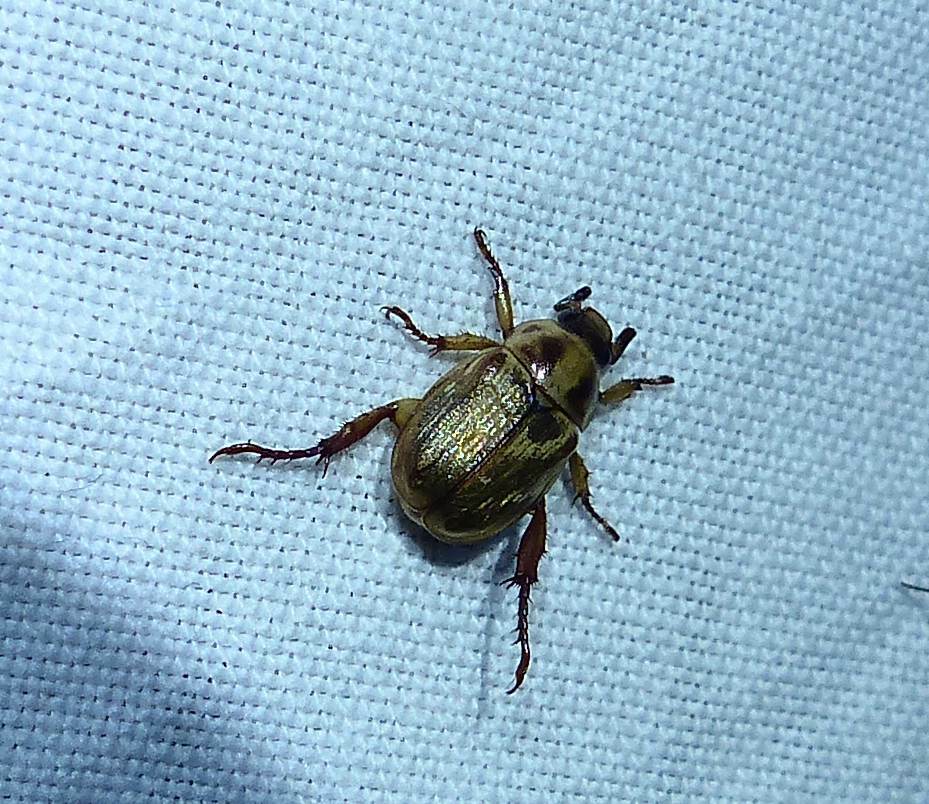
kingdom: Animalia
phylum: Arthropoda
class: Insecta
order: Coleoptera
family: Scarabaeidae
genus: Exomala
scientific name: Exomala orientalis
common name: Oriental beetle
